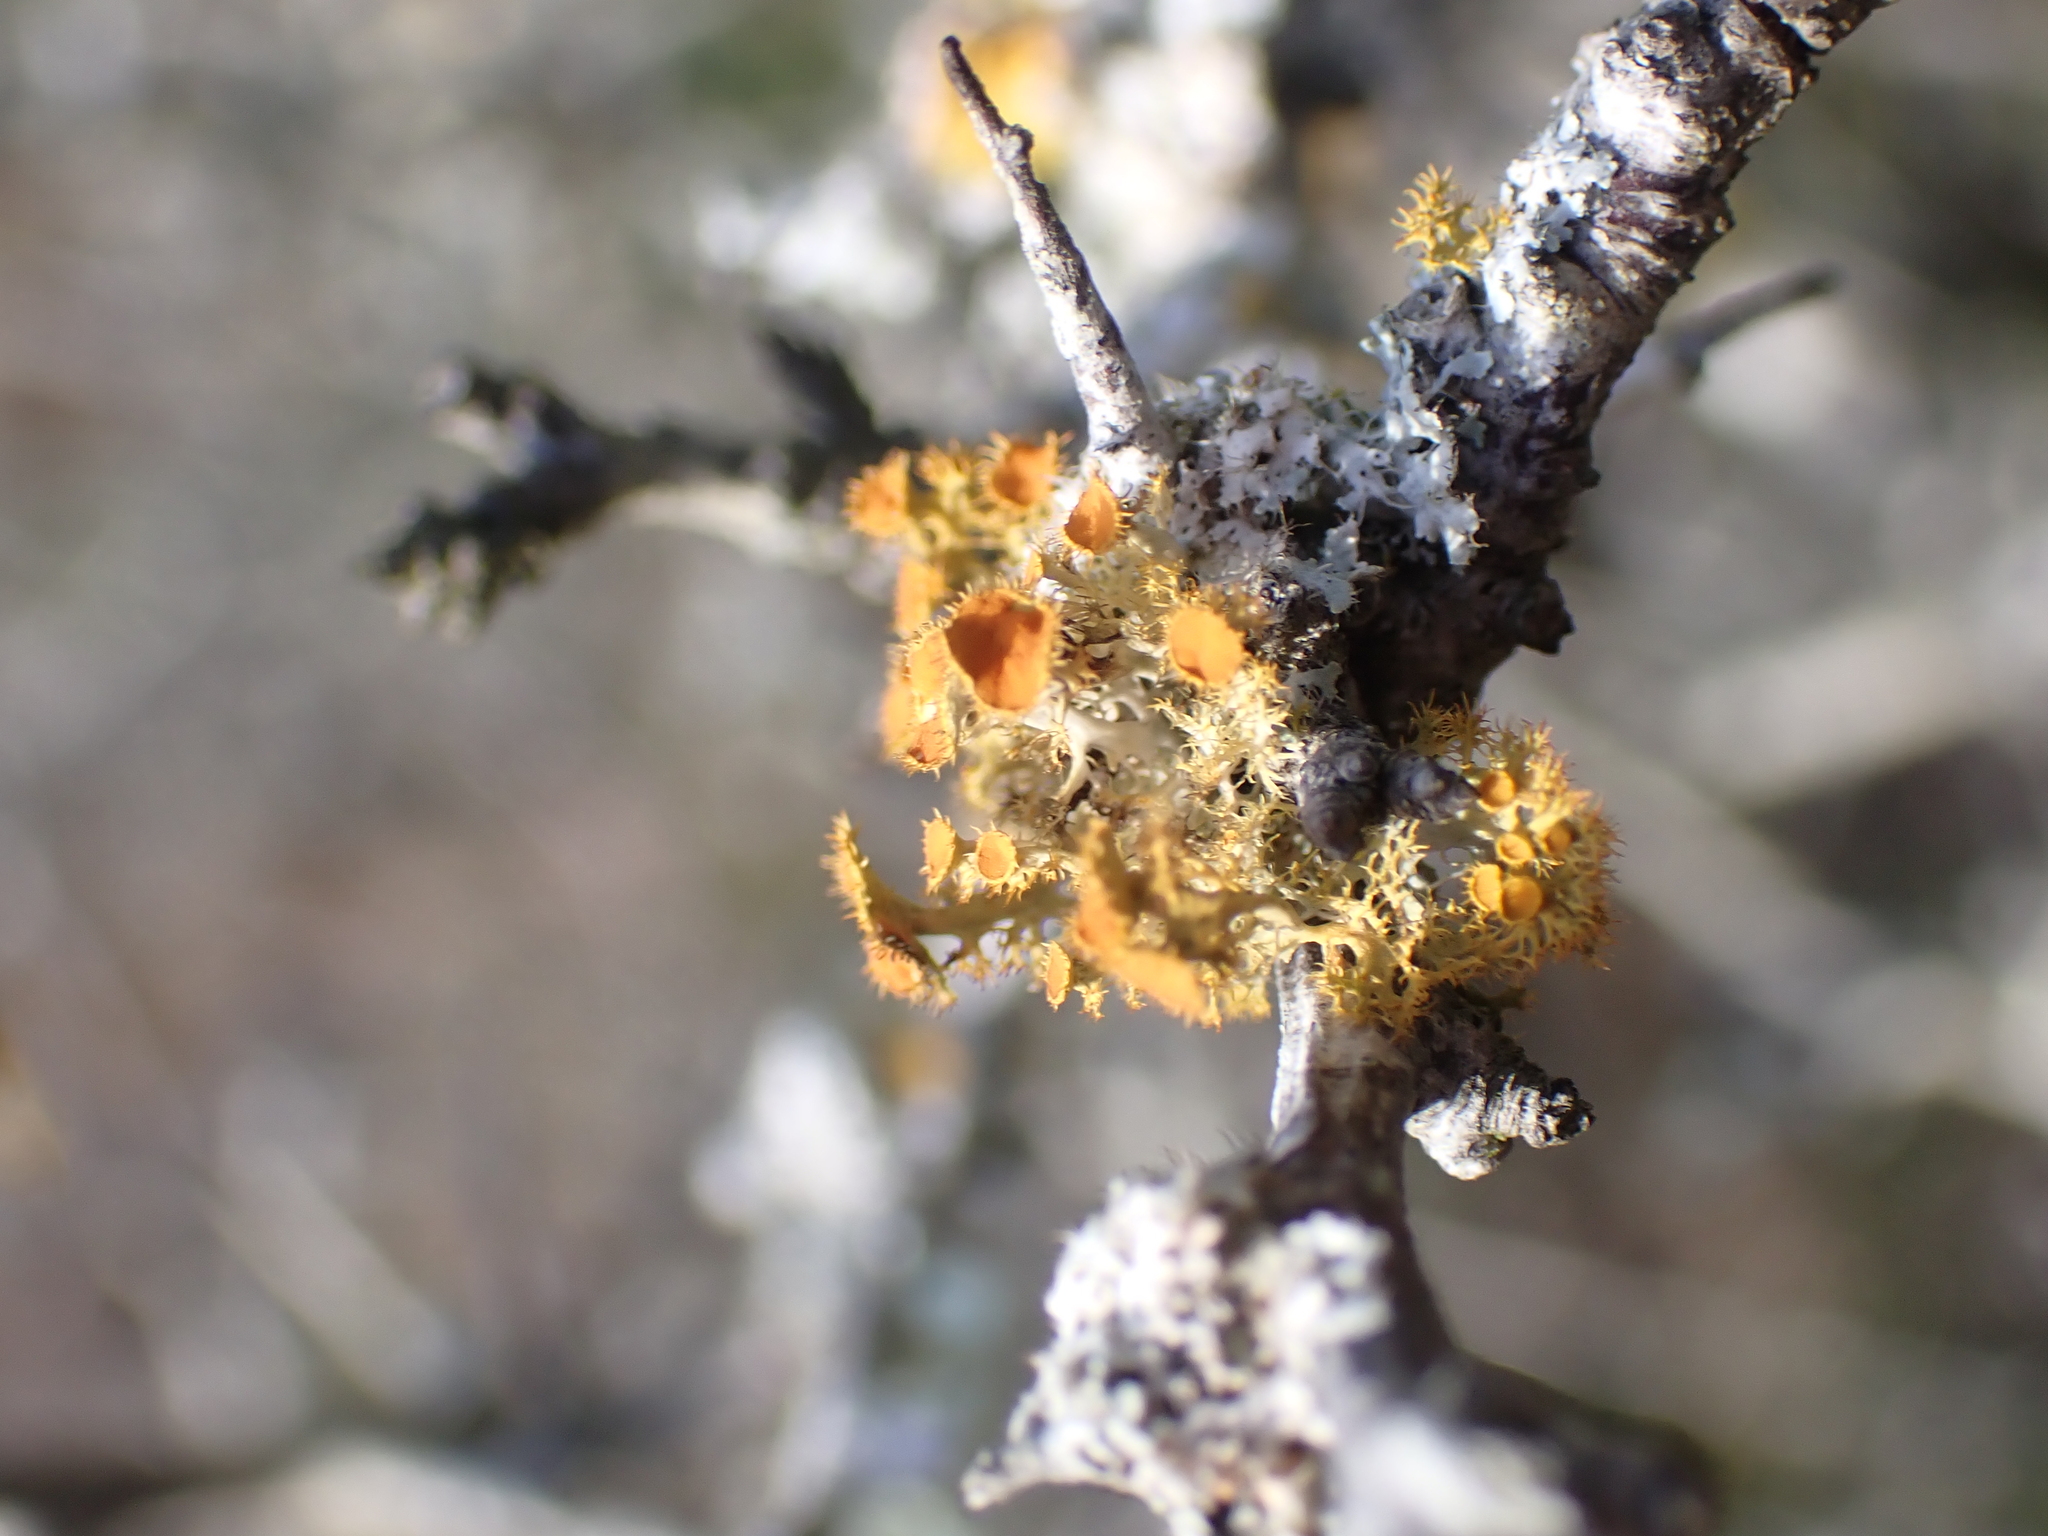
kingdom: Fungi
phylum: Ascomycota
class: Lecanoromycetes
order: Teloschistales
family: Teloschistaceae
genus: Niorma
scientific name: Niorma chrysophthalma
